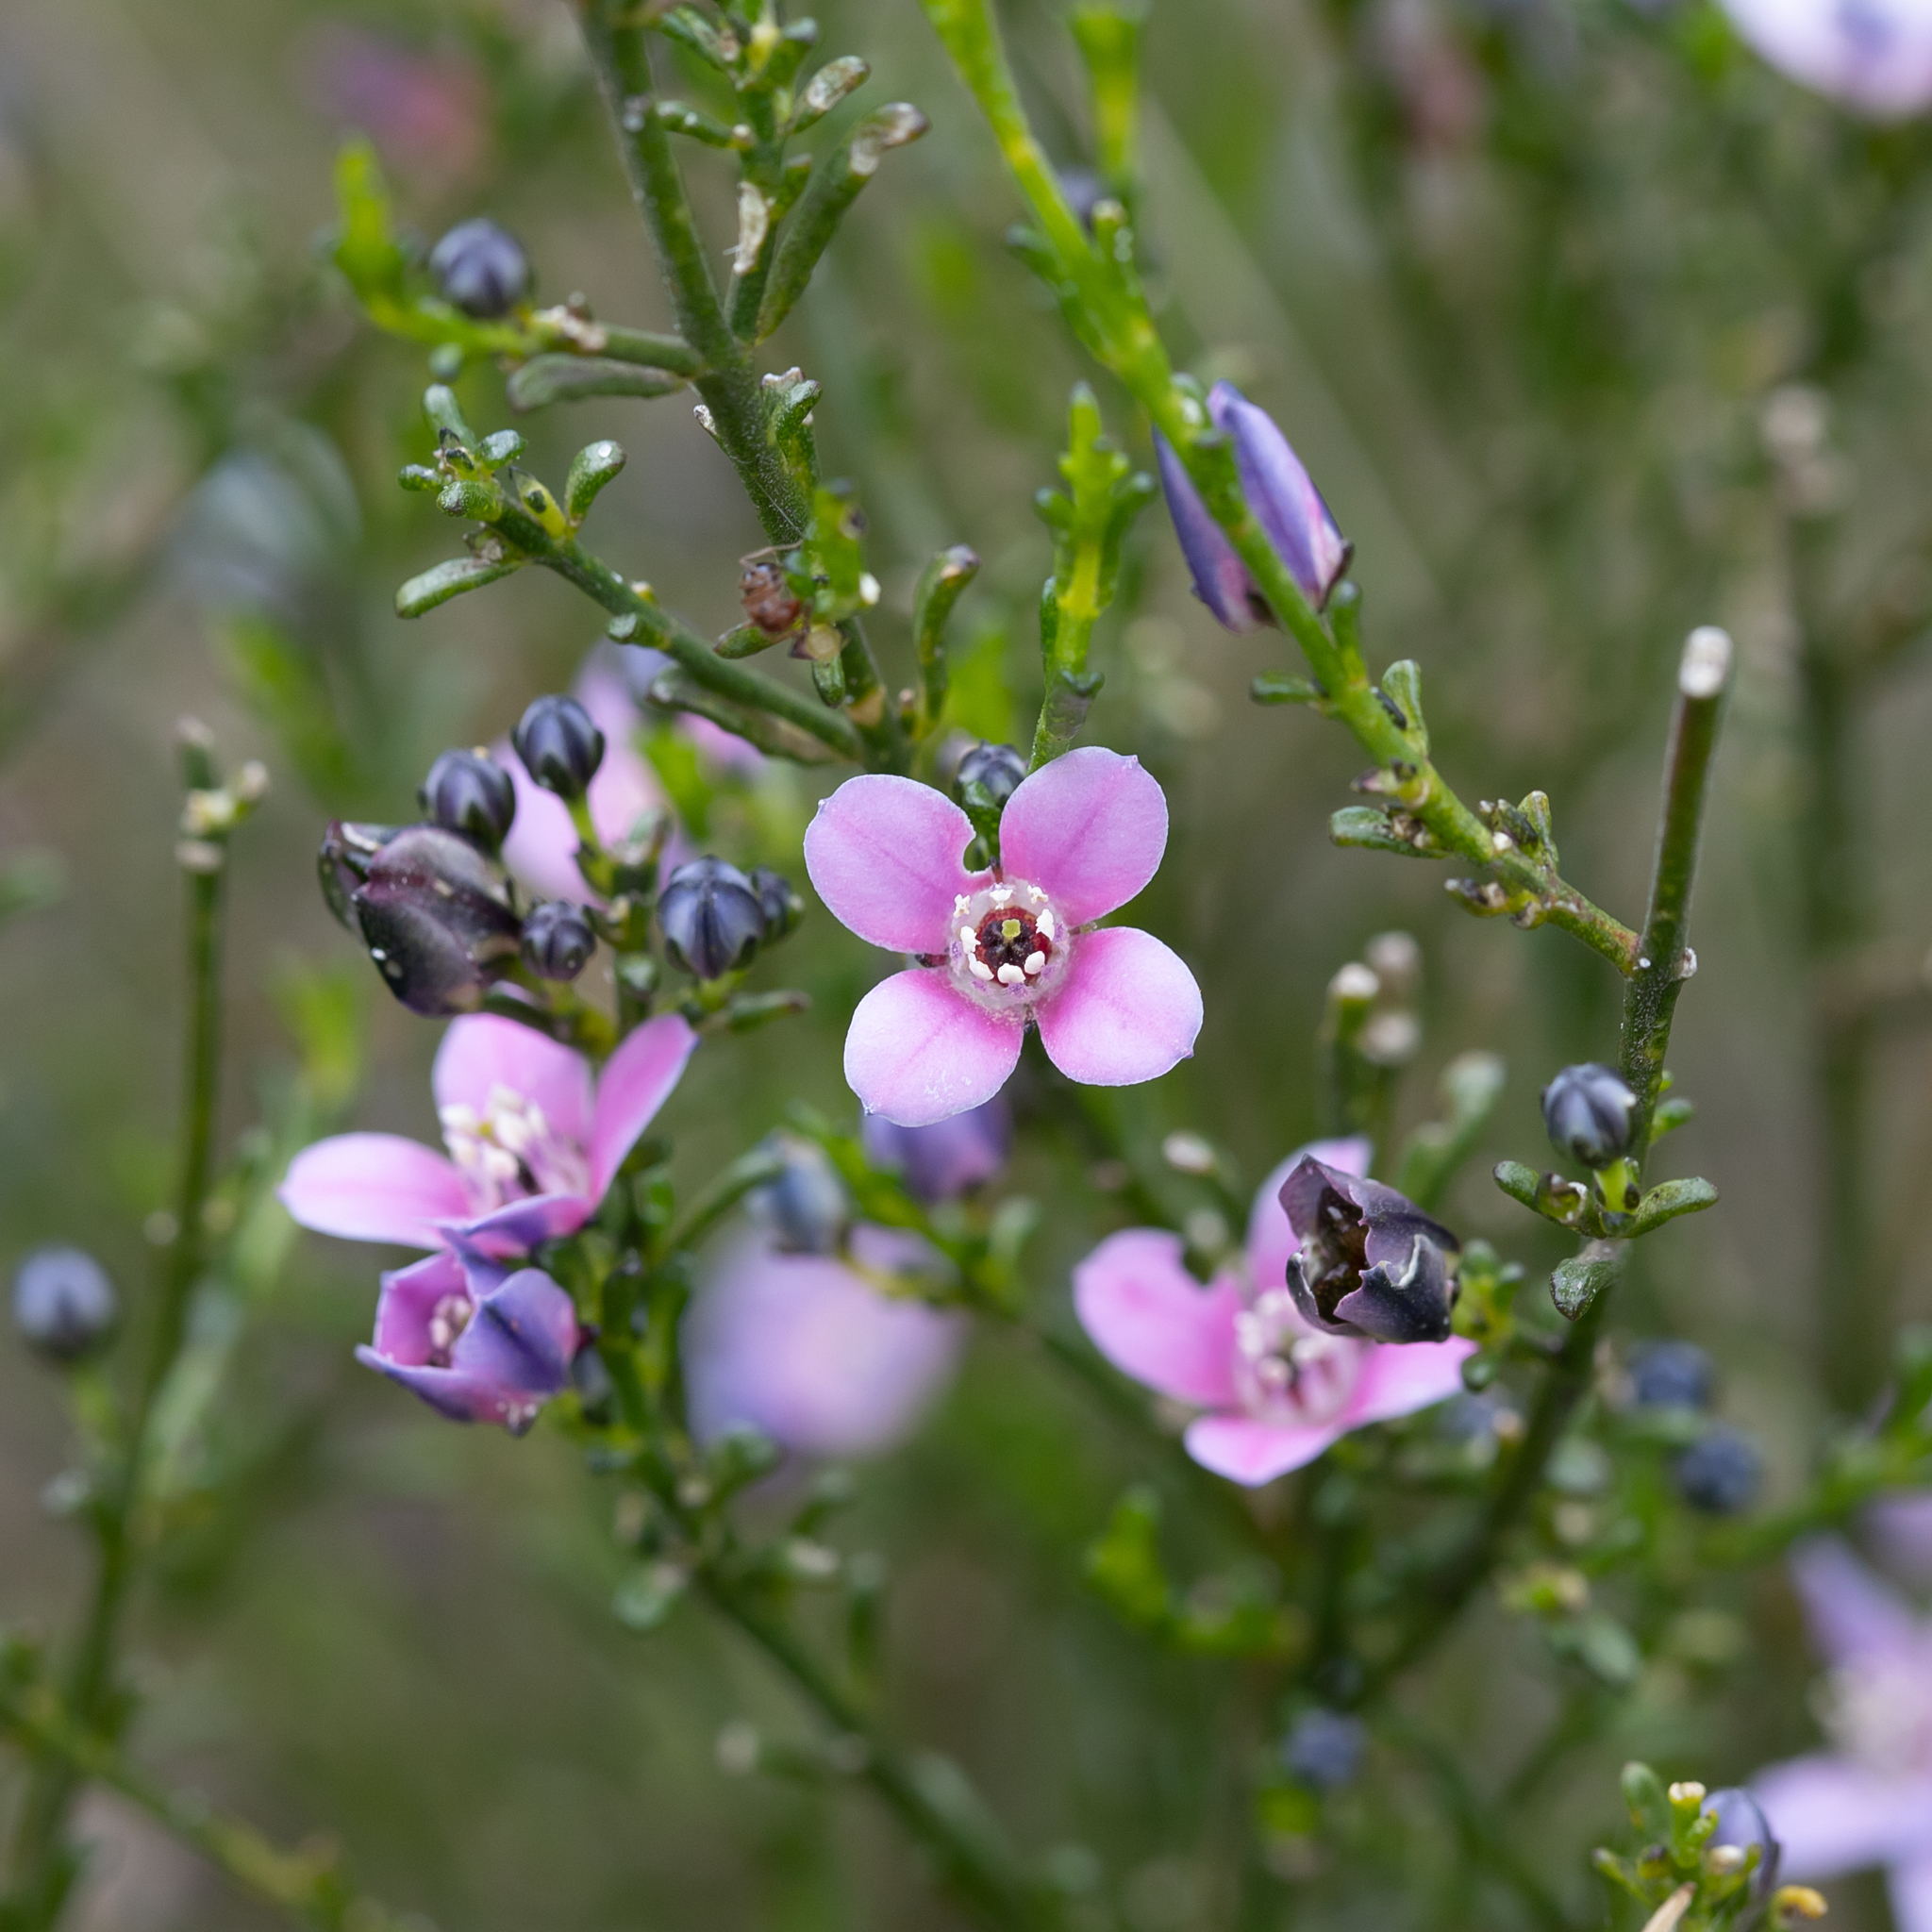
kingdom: Plantae
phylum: Tracheophyta
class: Magnoliopsida
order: Sapindales
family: Rutaceae
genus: Cyanothamnus
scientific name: Cyanothamnus coerulescens
